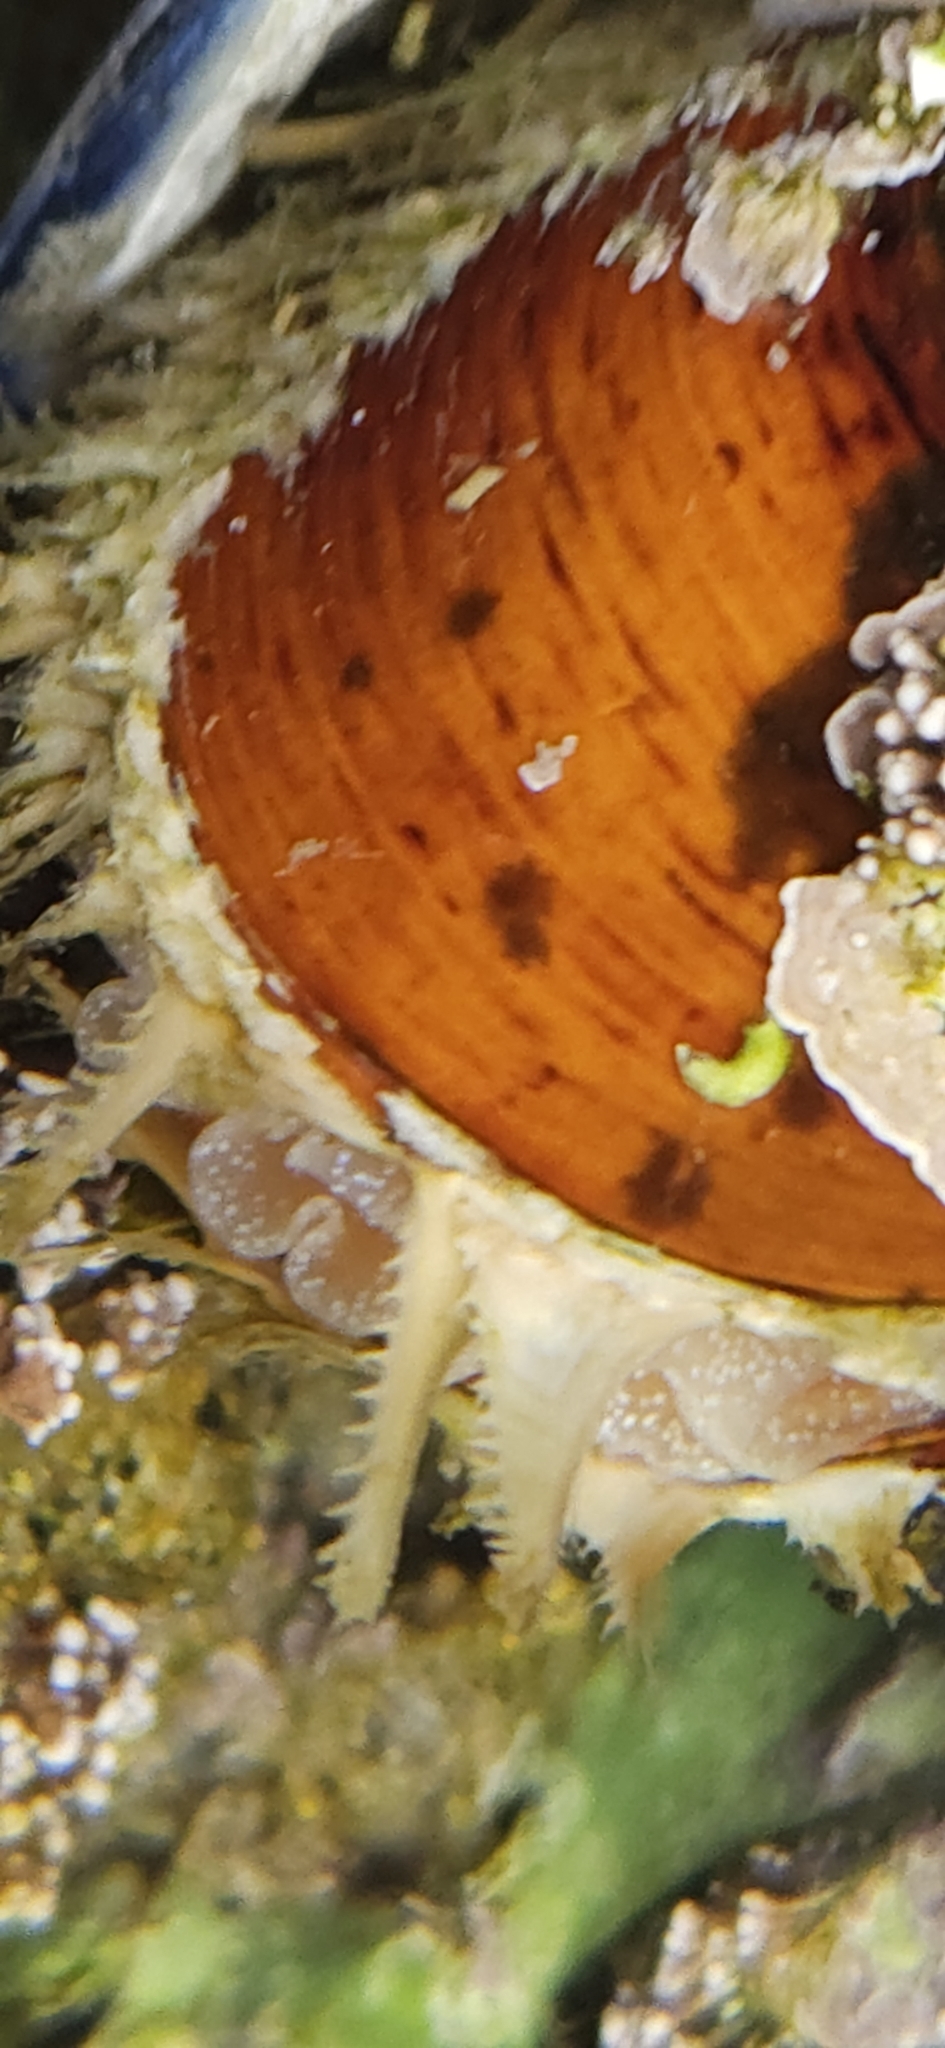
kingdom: Animalia
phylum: Mollusca
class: Bivalvia
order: Mytilida
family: Mytilidae
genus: Modiolus
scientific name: Modiolus capax
